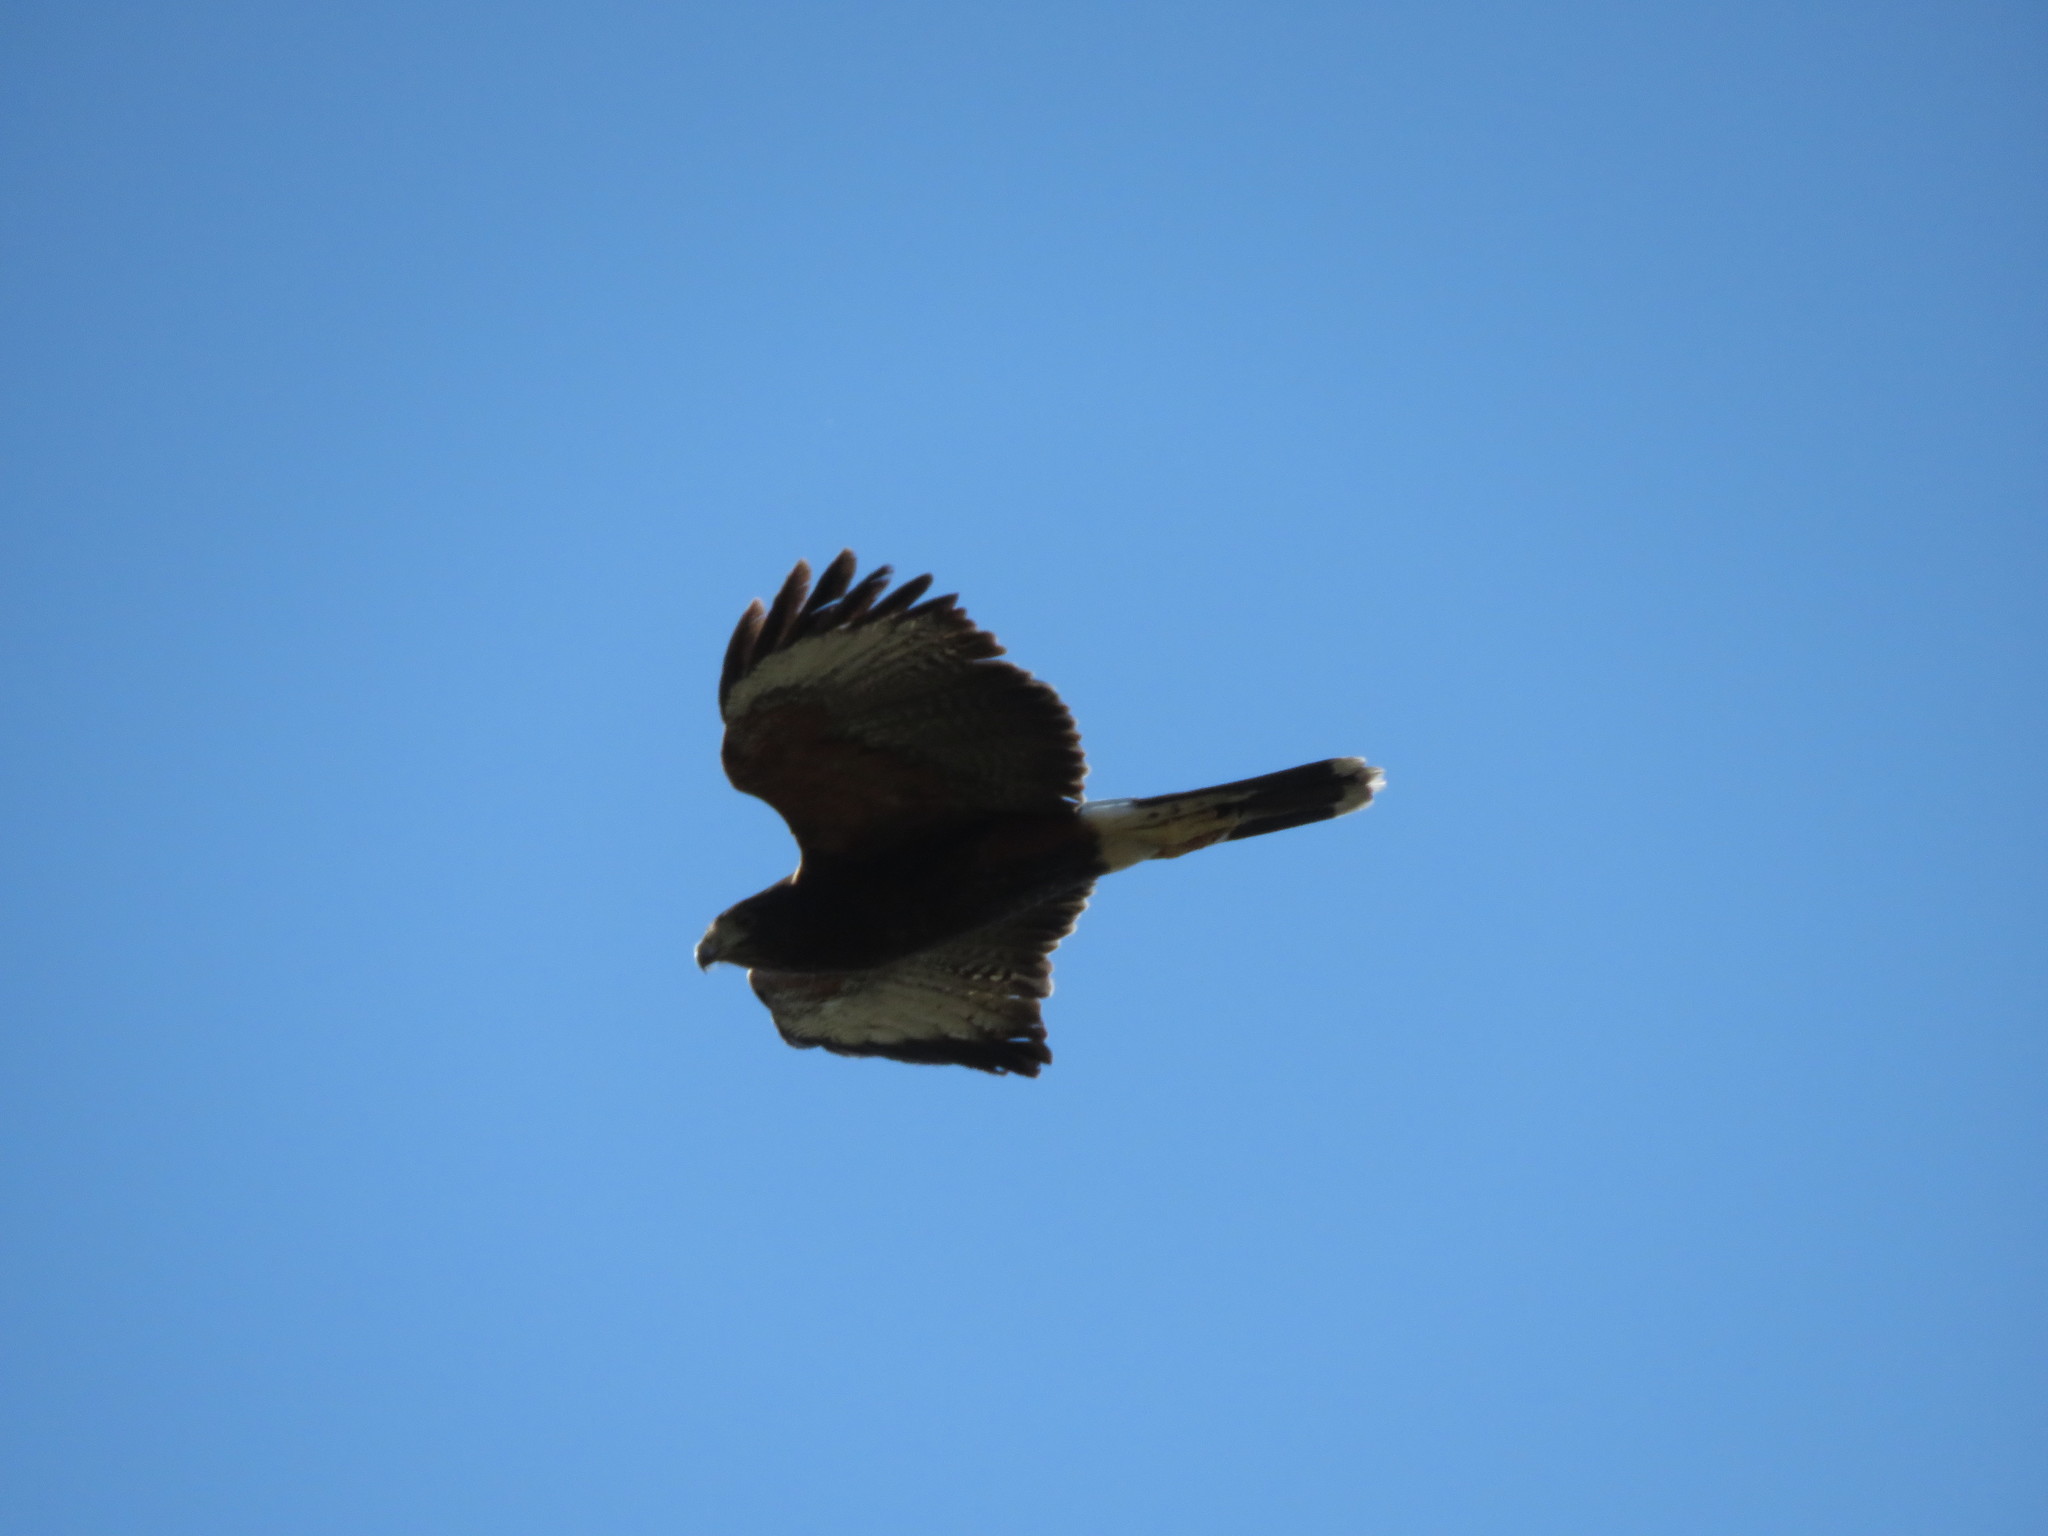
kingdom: Animalia
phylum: Chordata
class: Aves
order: Accipitriformes
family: Accipitridae
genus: Parabuteo
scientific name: Parabuteo unicinctus
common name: Harris's hawk
